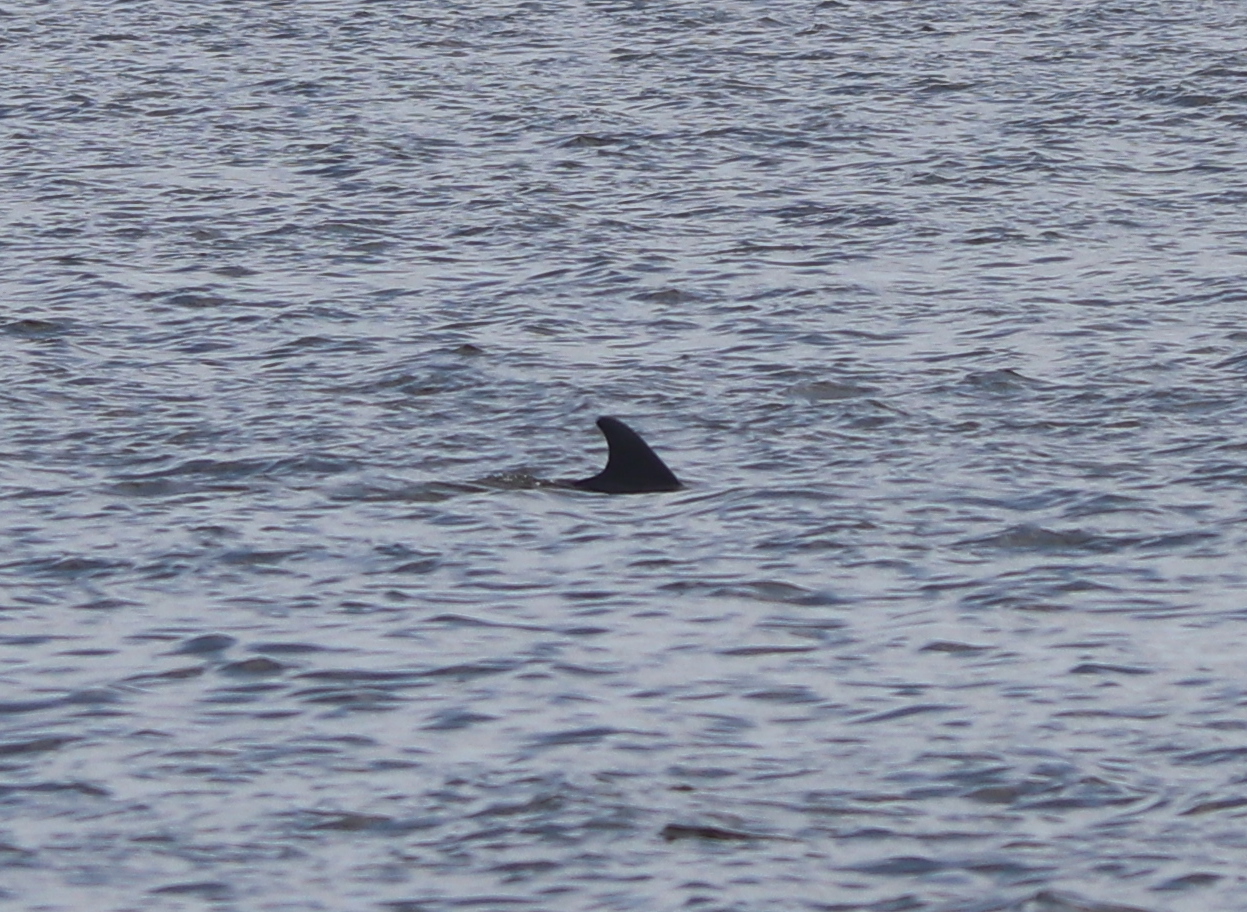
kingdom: Animalia
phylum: Chordata
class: Mammalia
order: Cetacea
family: Delphinidae
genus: Tursiops
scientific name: Tursiops truncatus
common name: Bottlenose dolphin
